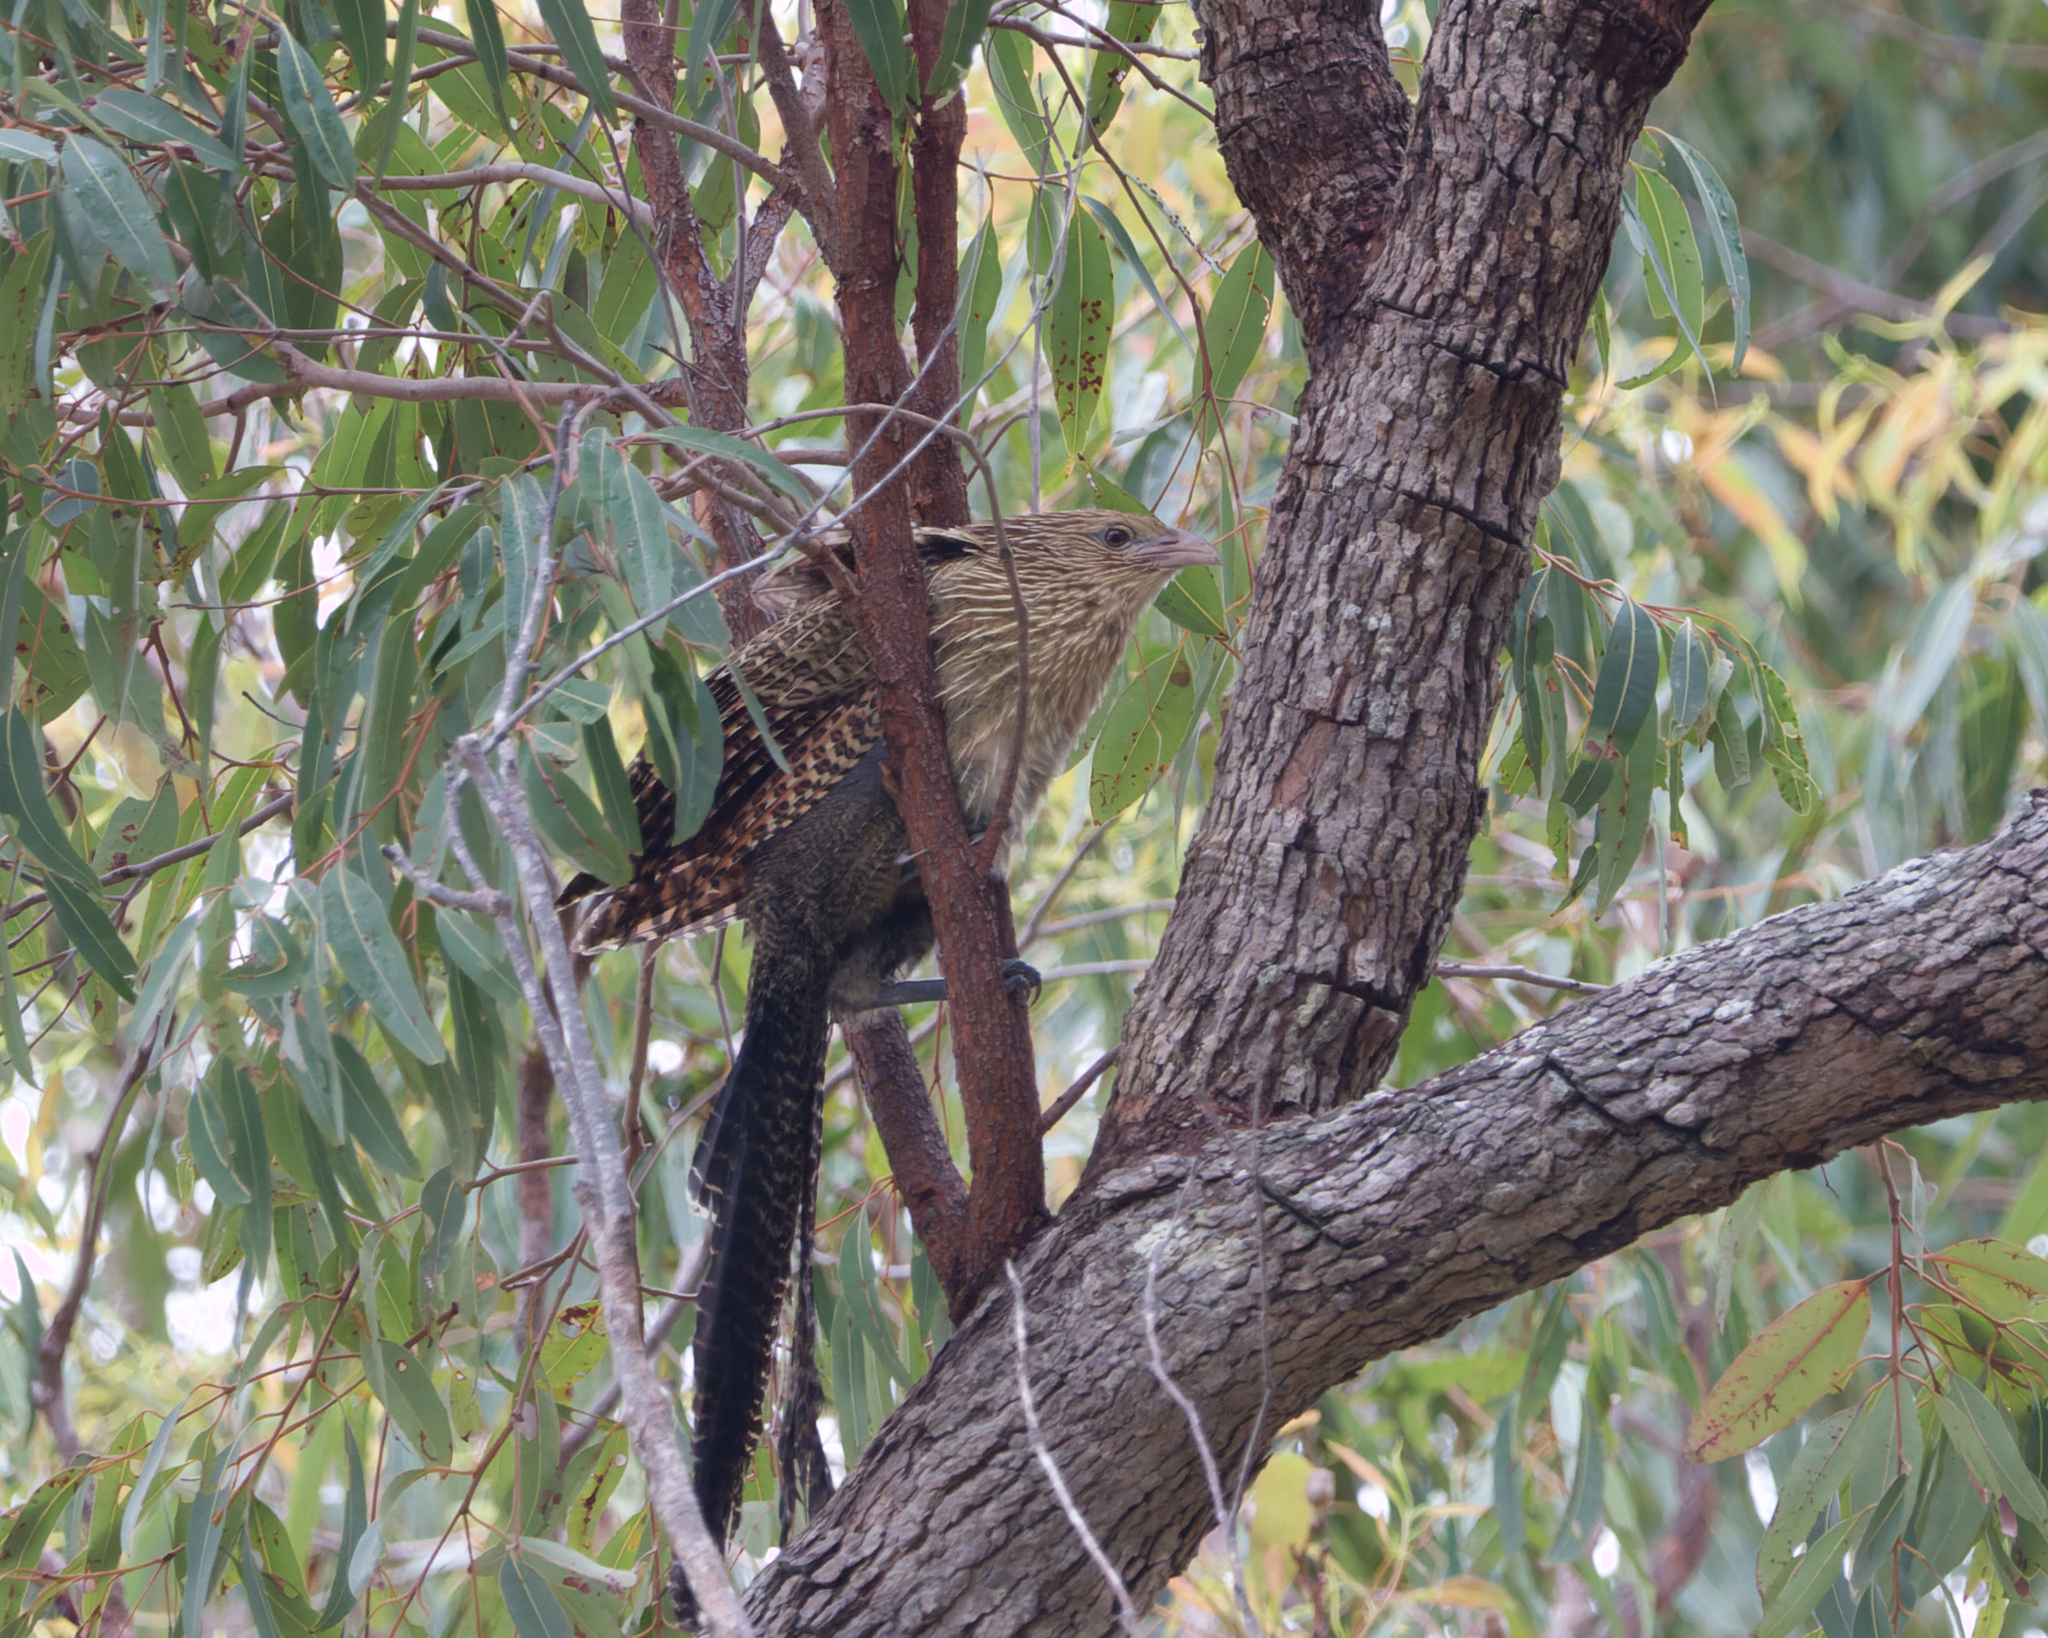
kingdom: Animalia
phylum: Chordata
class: Aves
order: Cuculiformes
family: Cuculidae
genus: Centropus
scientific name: Centropus phasianinus
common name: Pheasant coucal
